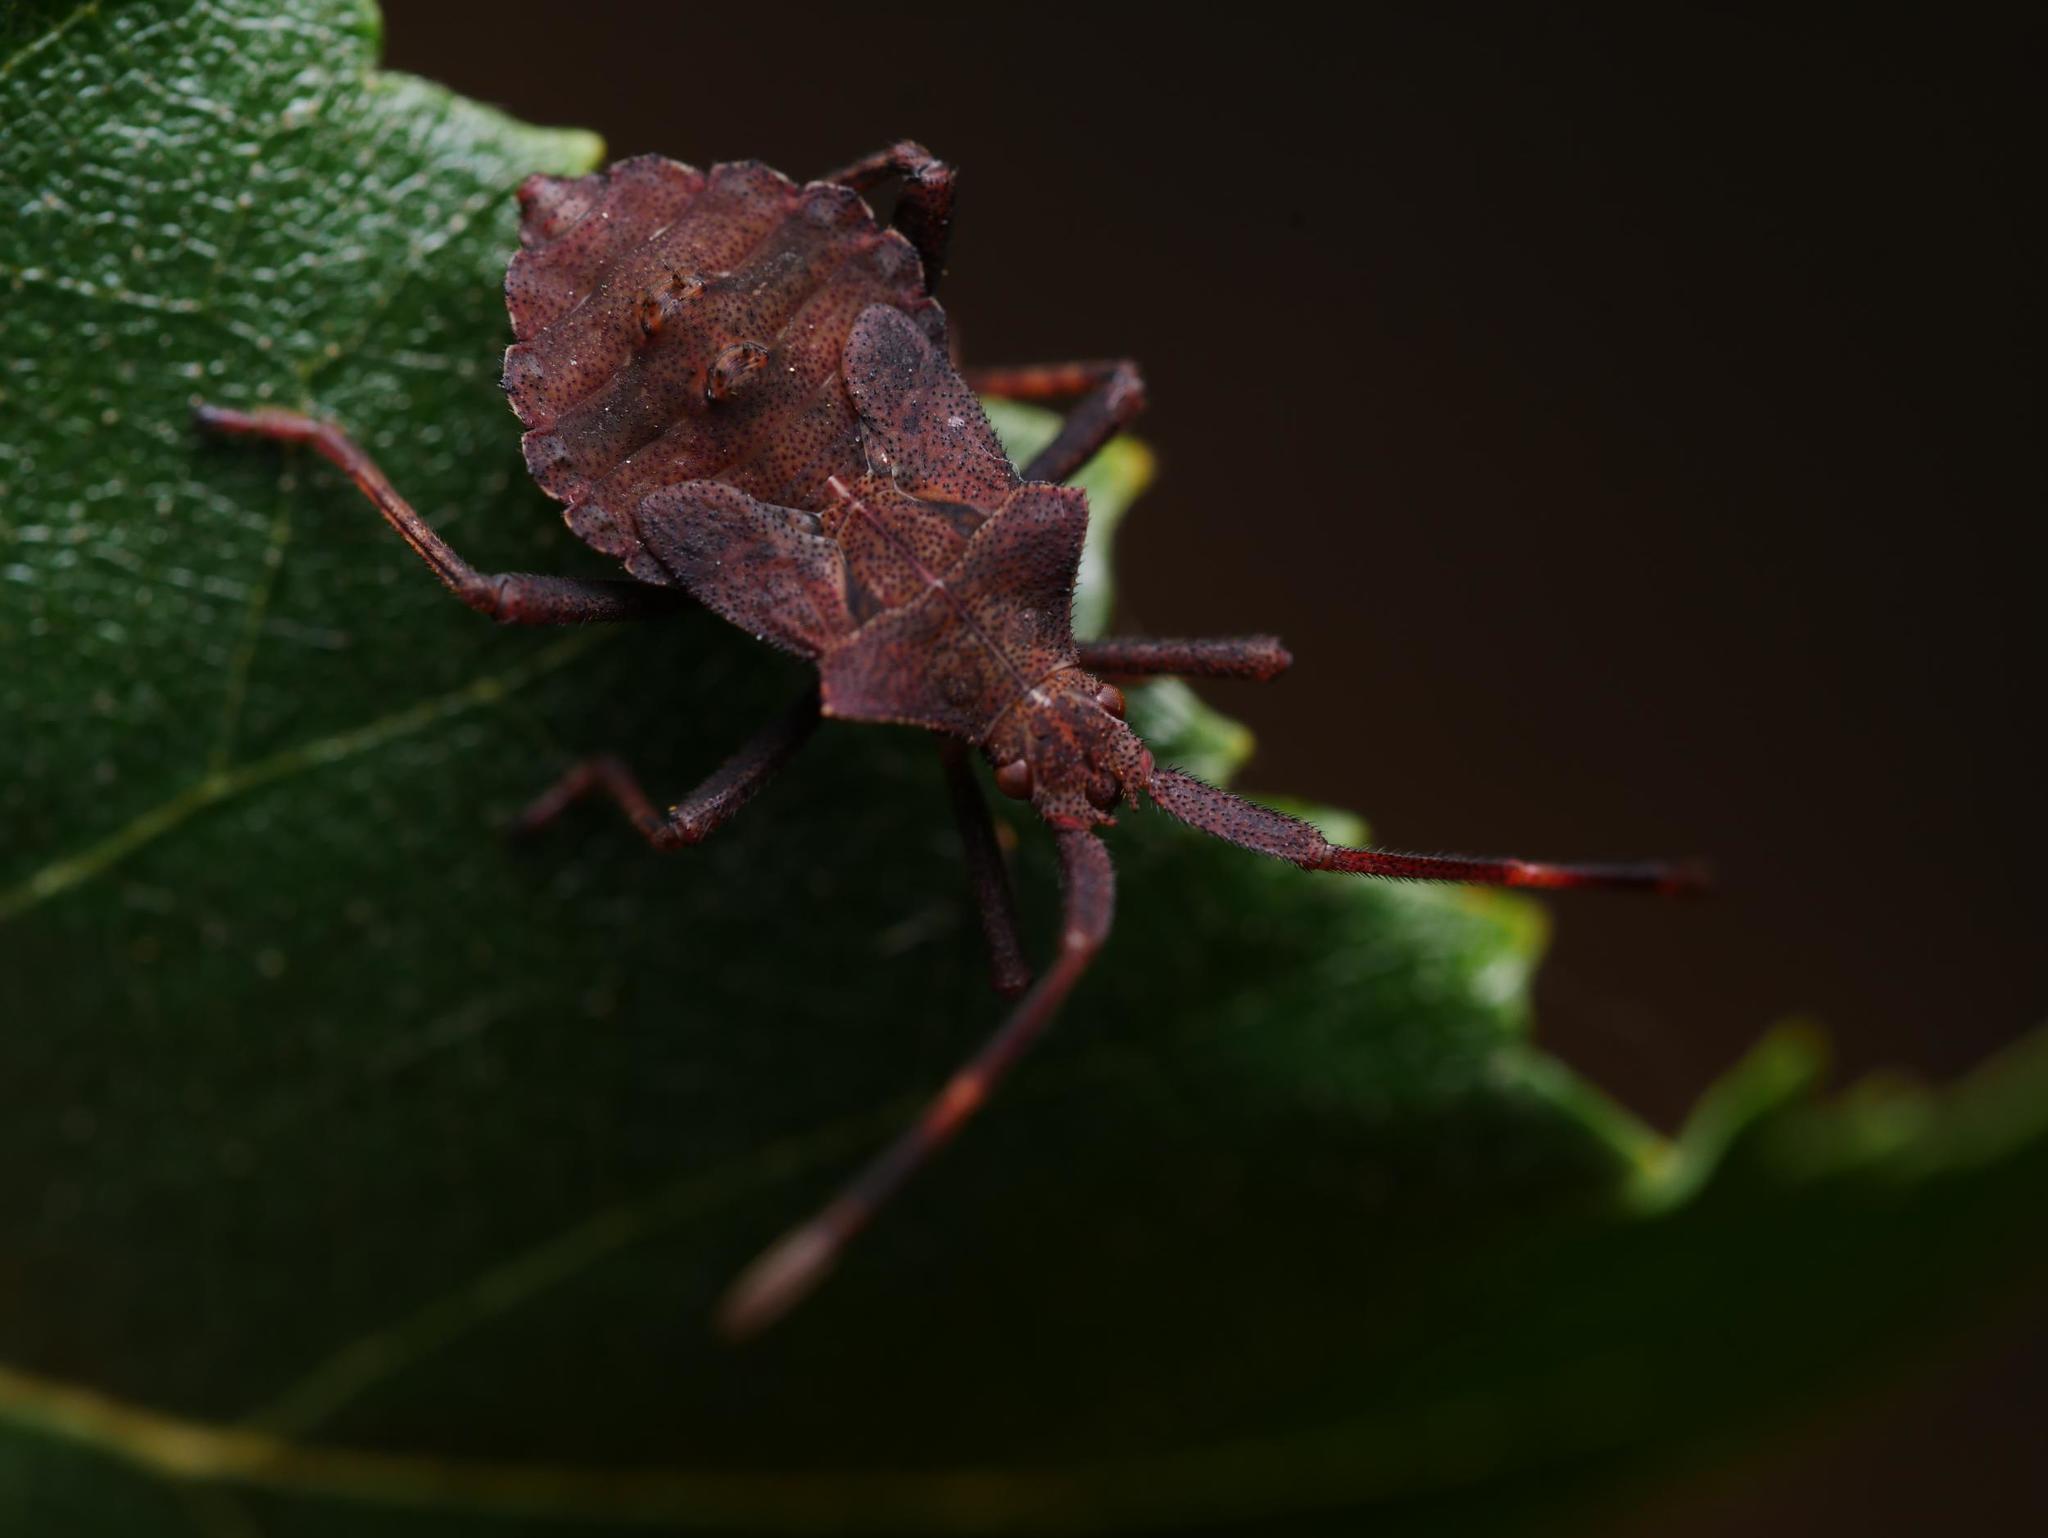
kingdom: Animalia
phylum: Arthropoda
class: Insecta
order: Hemiptera
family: Coreidae
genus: Coreus
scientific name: Coreus marginatus
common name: Dock bug
